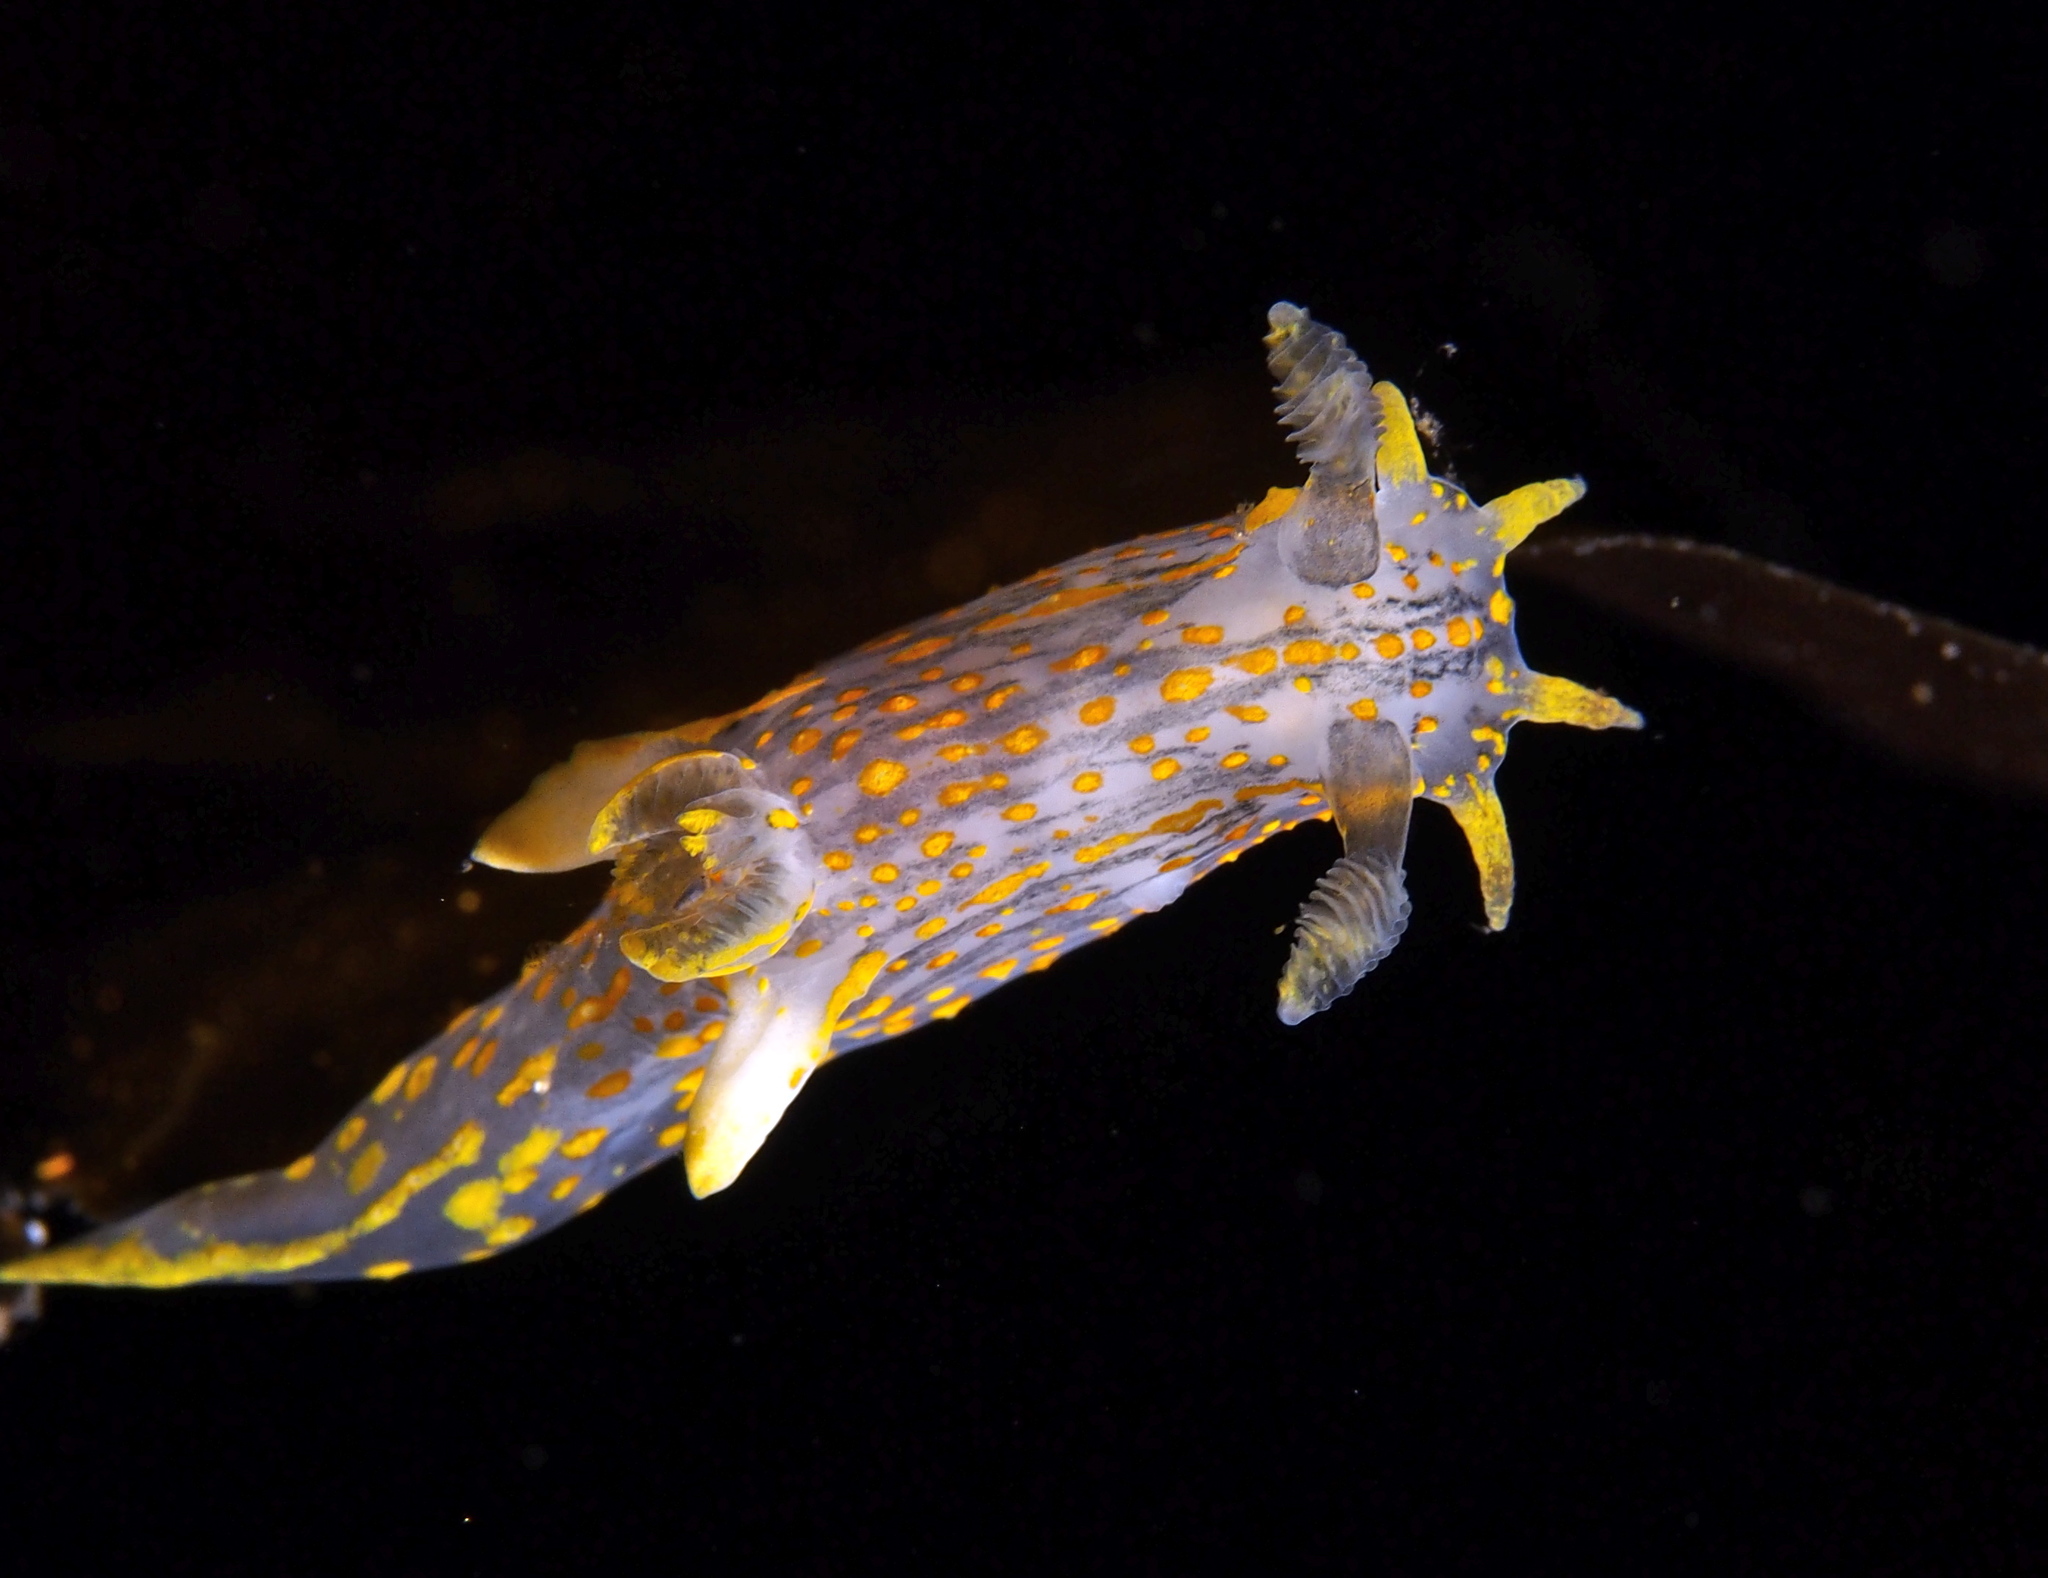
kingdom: Animalia
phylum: Mollusca
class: Gastropoda
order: Nudibranchia
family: Polyceridae
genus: Polycera
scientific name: Polycera quadrilineata
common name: Four-striped polycera
